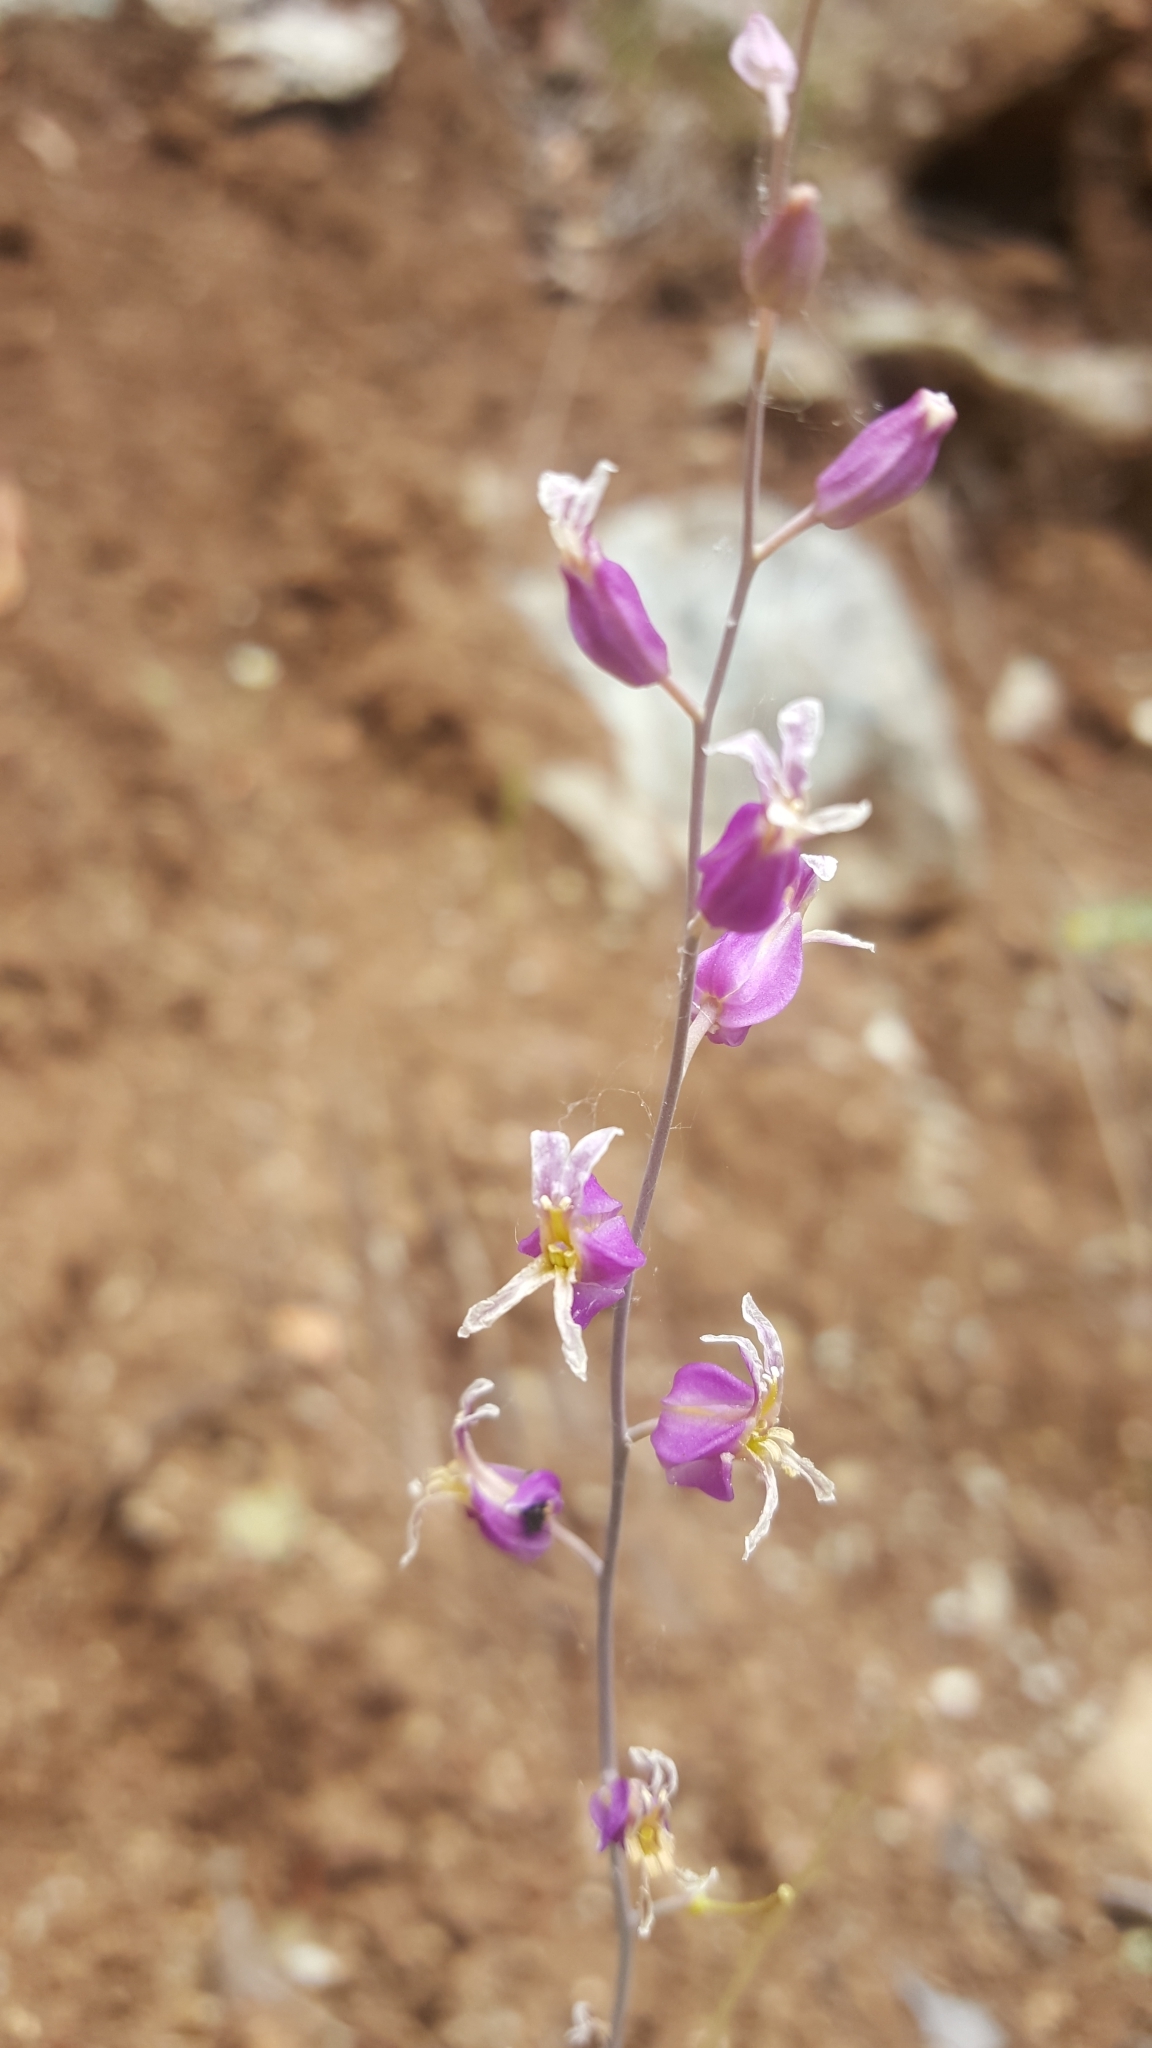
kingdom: Plantae
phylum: Tracheophyta
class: Magnoliopsida
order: Brassicales
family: Brassicaceae
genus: Streptanthus
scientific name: Streptanthus glandulosus
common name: Jewel-flower
